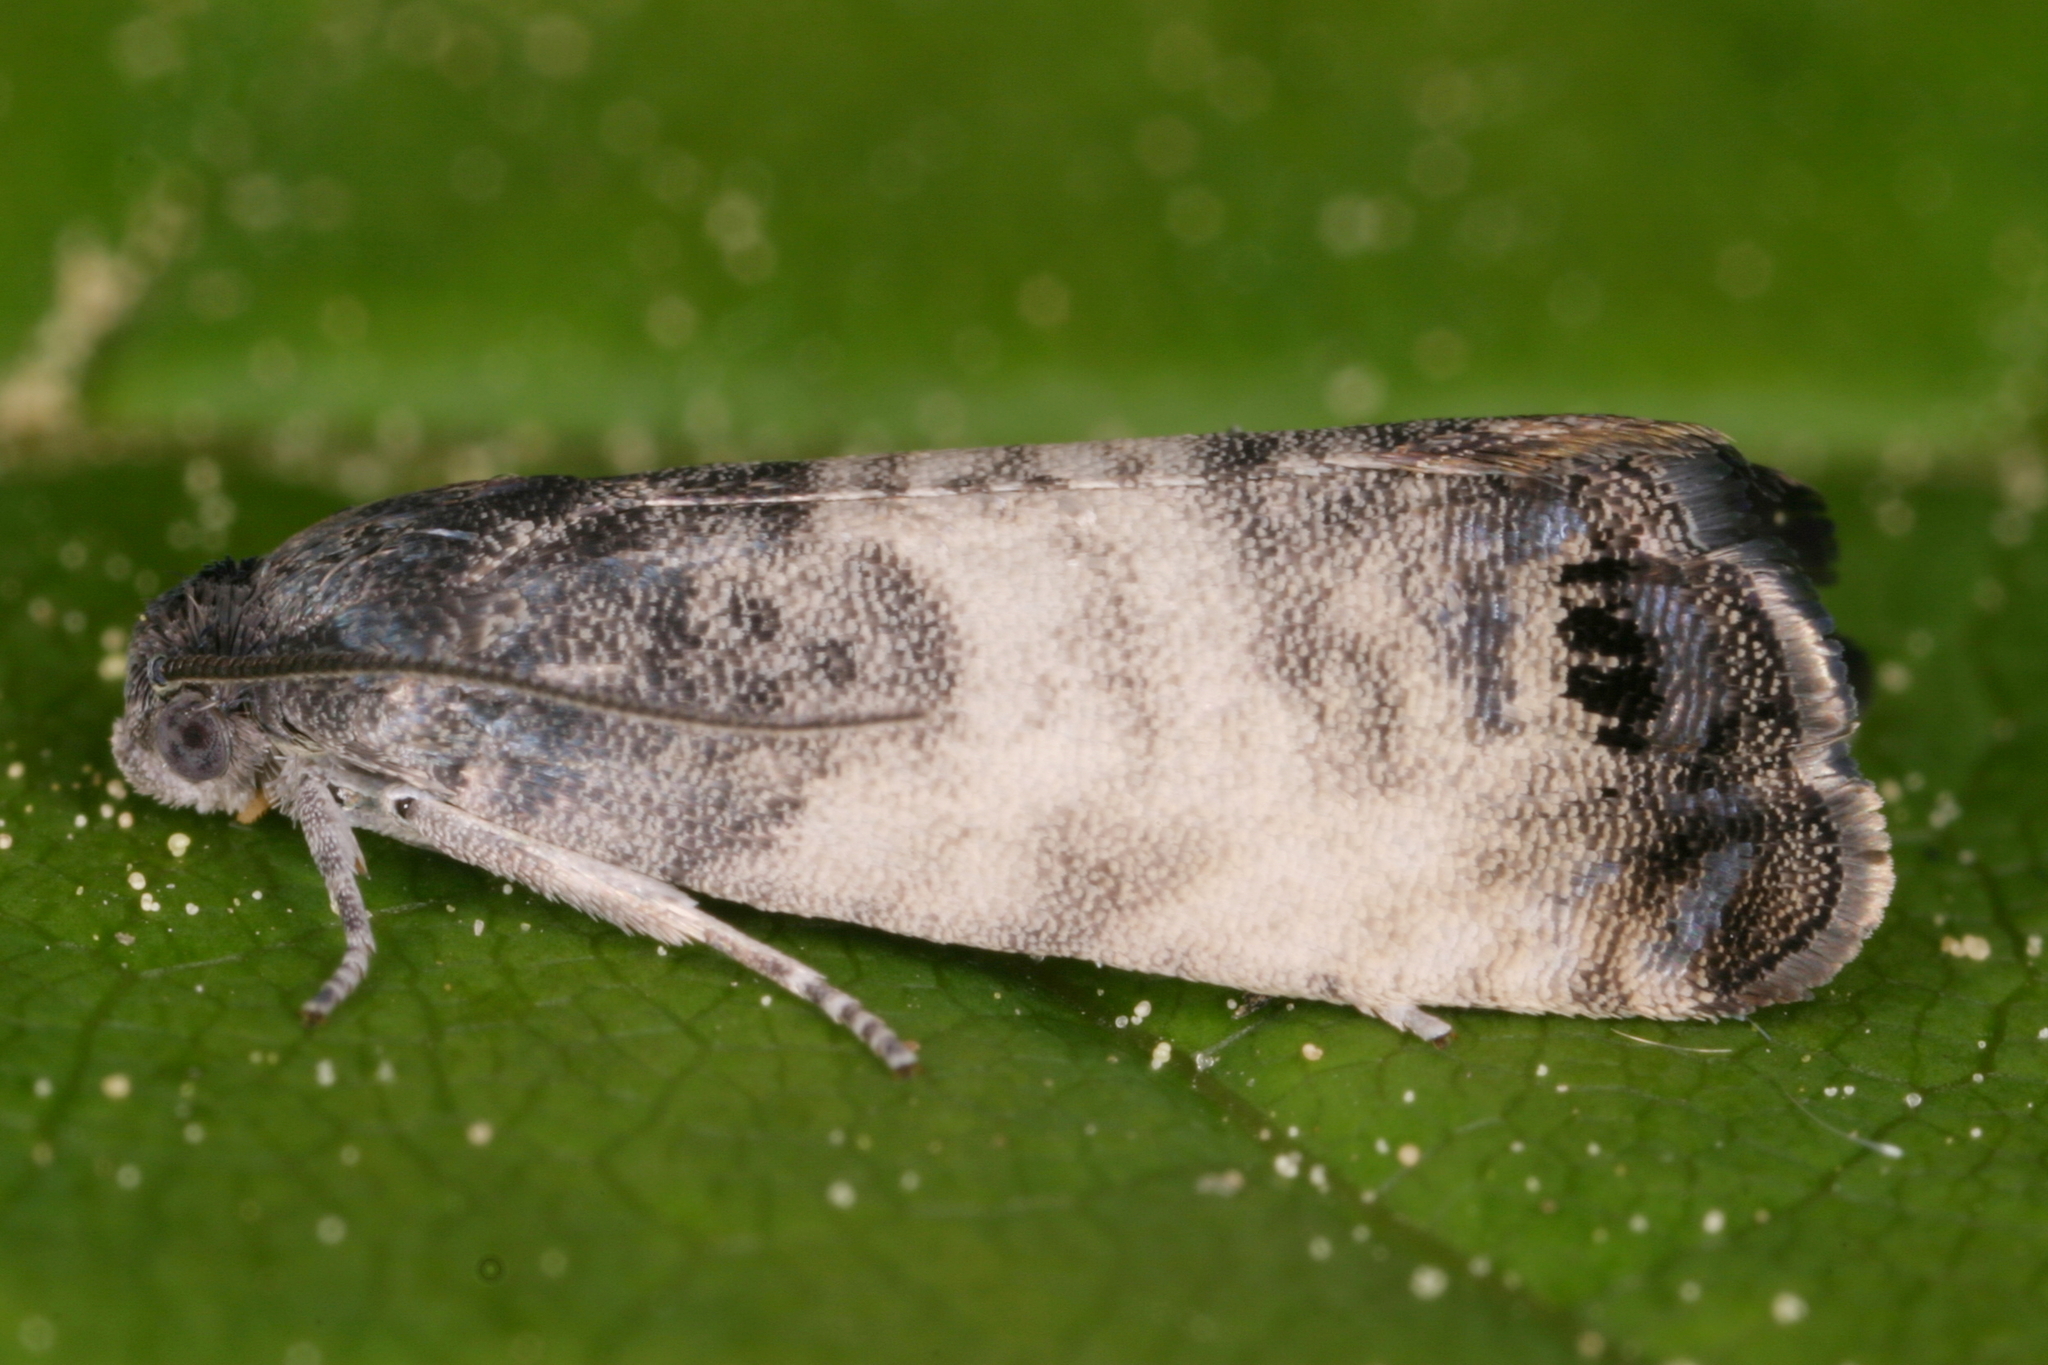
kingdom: Animalia
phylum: Arthropoda
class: Insecta
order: Lepidoptera
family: Tortricidae
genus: Cydia
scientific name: Cydia servillana
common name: Sallow-shoot piercer
